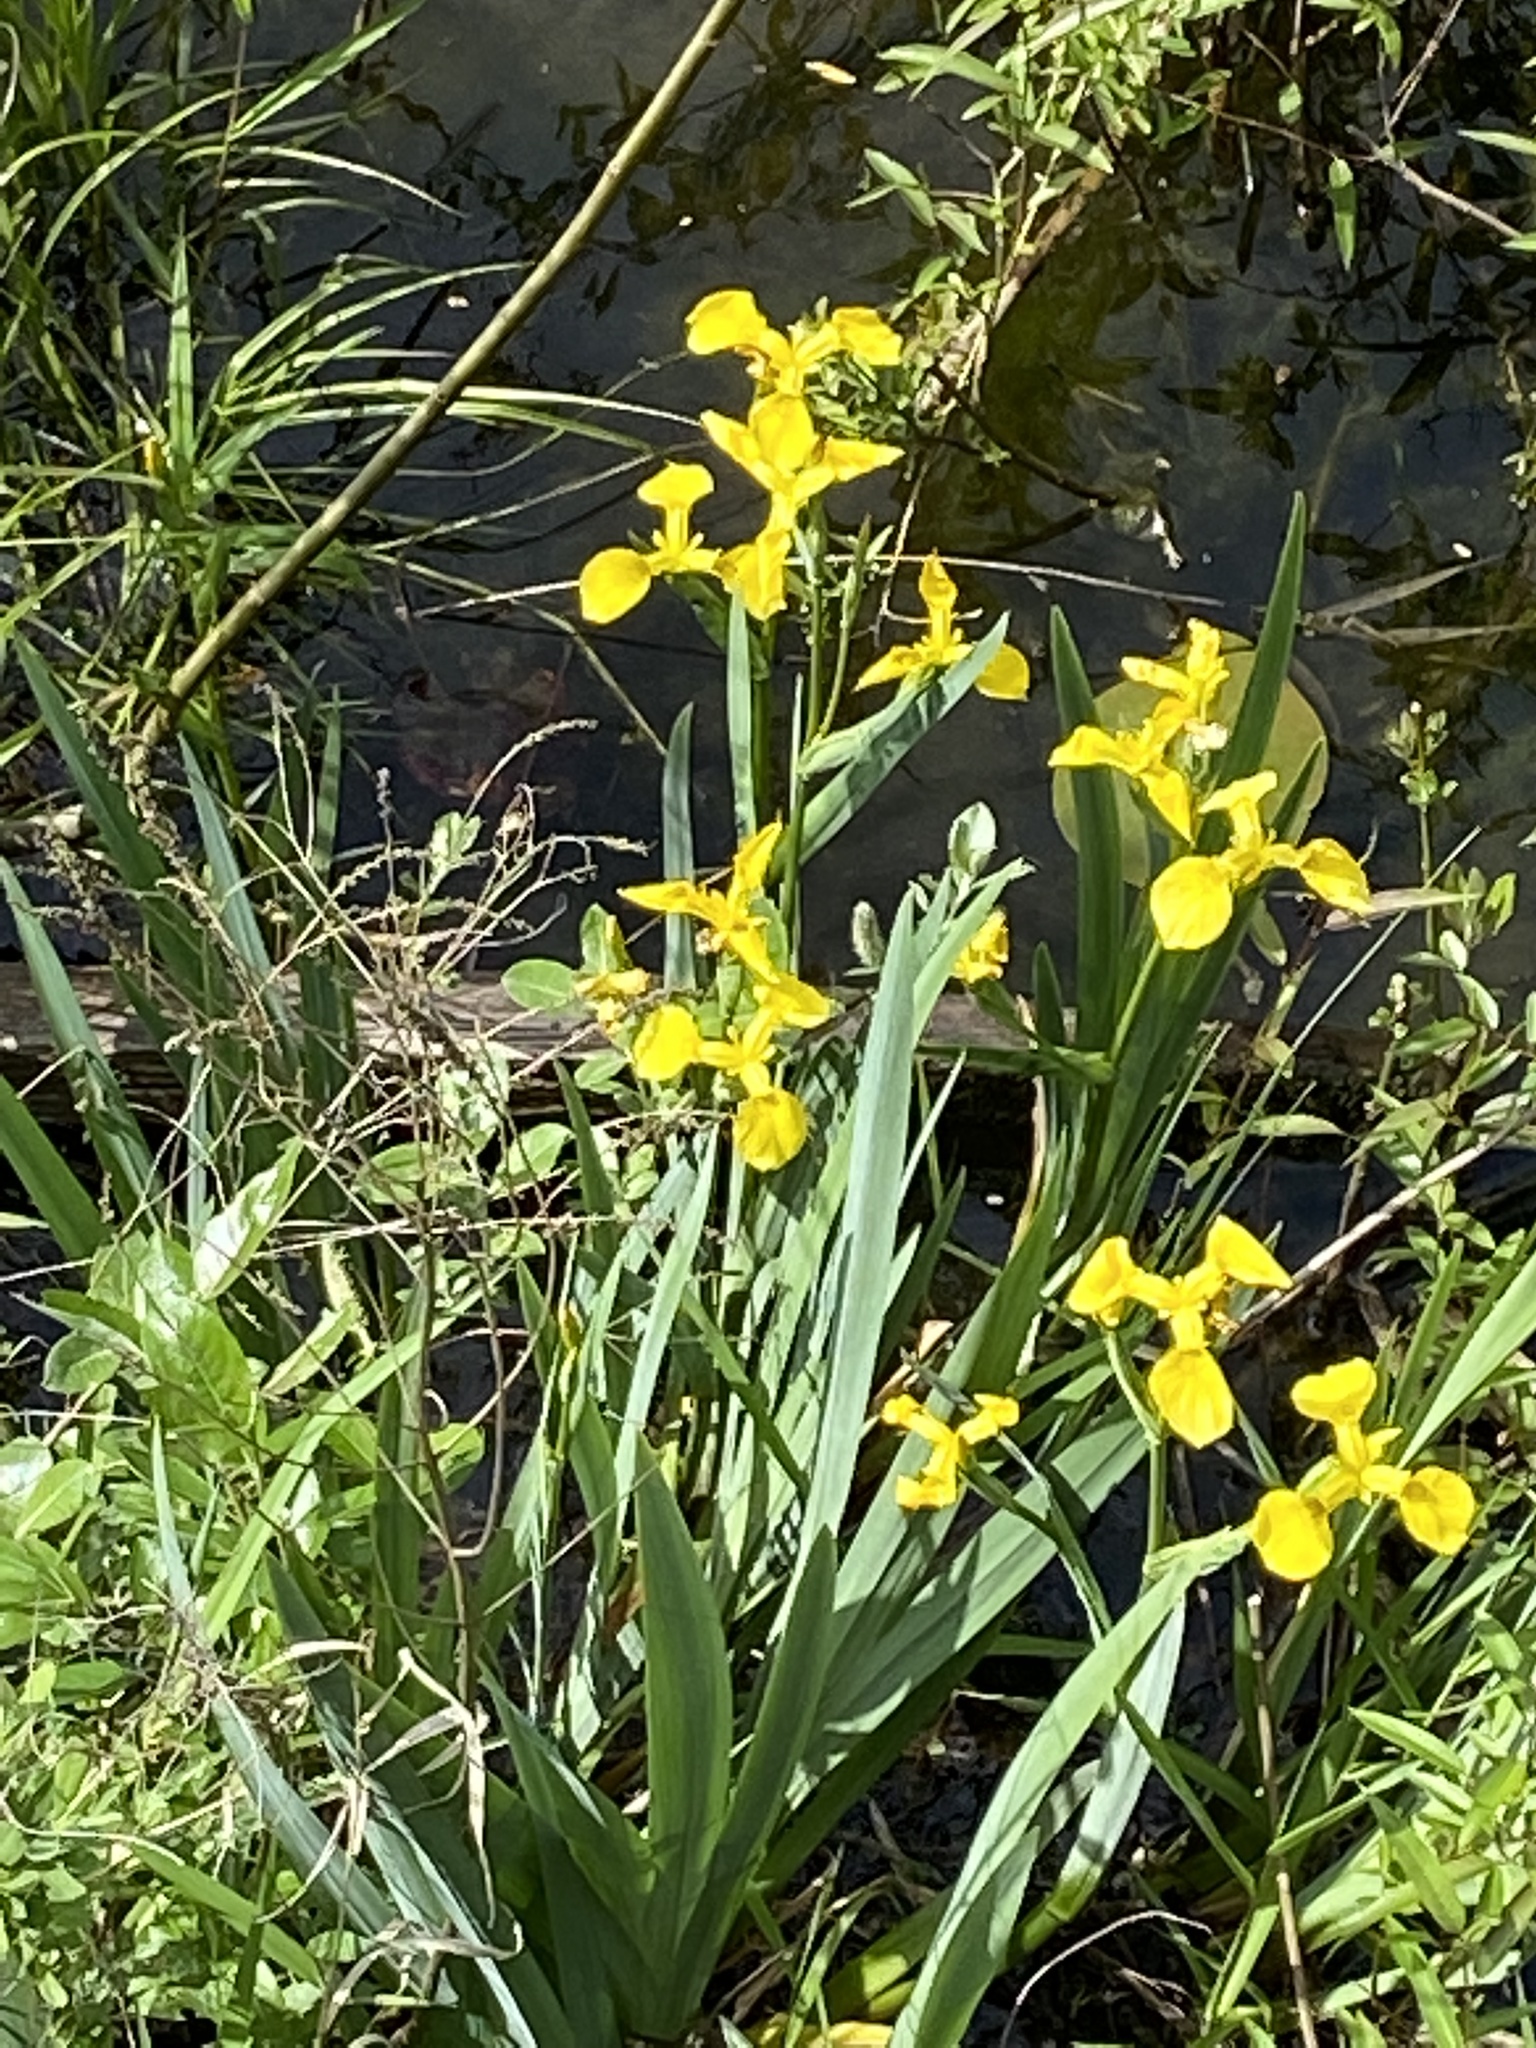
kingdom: Plantae
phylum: Tracheophyta
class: Liliopsida
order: Asparagales
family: Iridaceae
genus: Iris
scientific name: Iris pseudacorus
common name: Yellow flag
